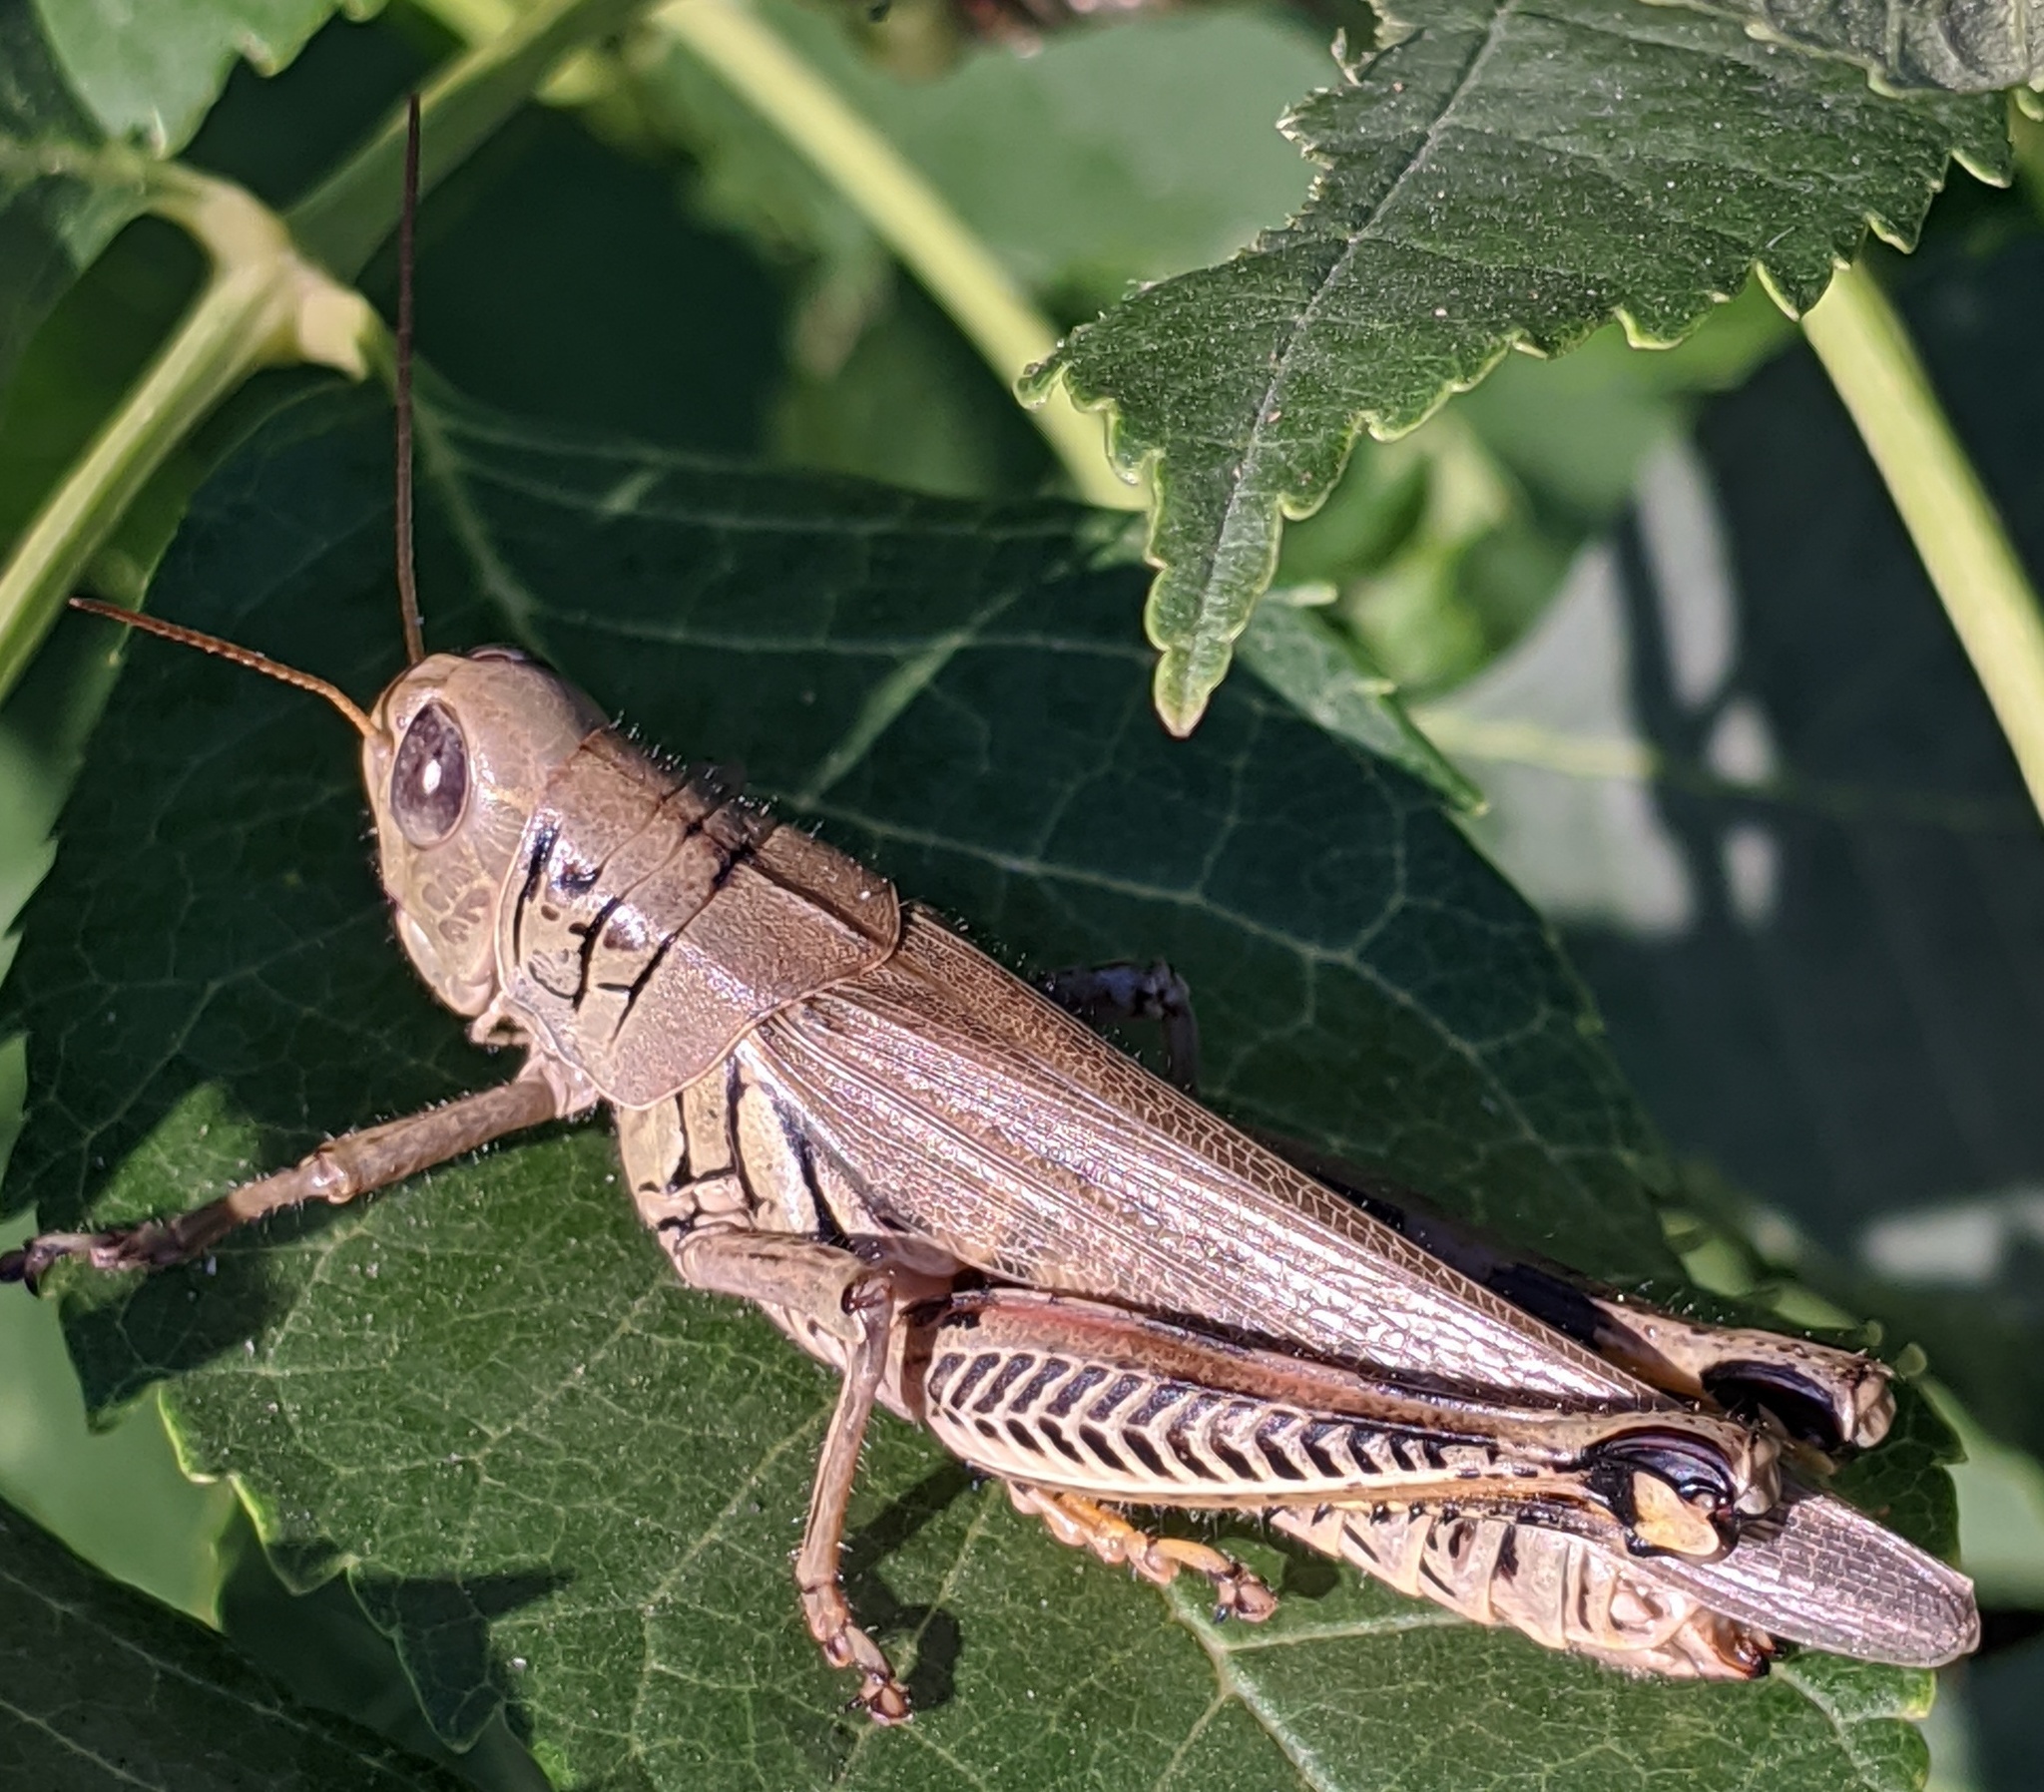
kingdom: Animalia
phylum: Arthropoda
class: Insecta
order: Orthoptera
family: Acrididae
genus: Melanoplus
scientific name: Melanoplus differentialis
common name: Differential grasshopper
